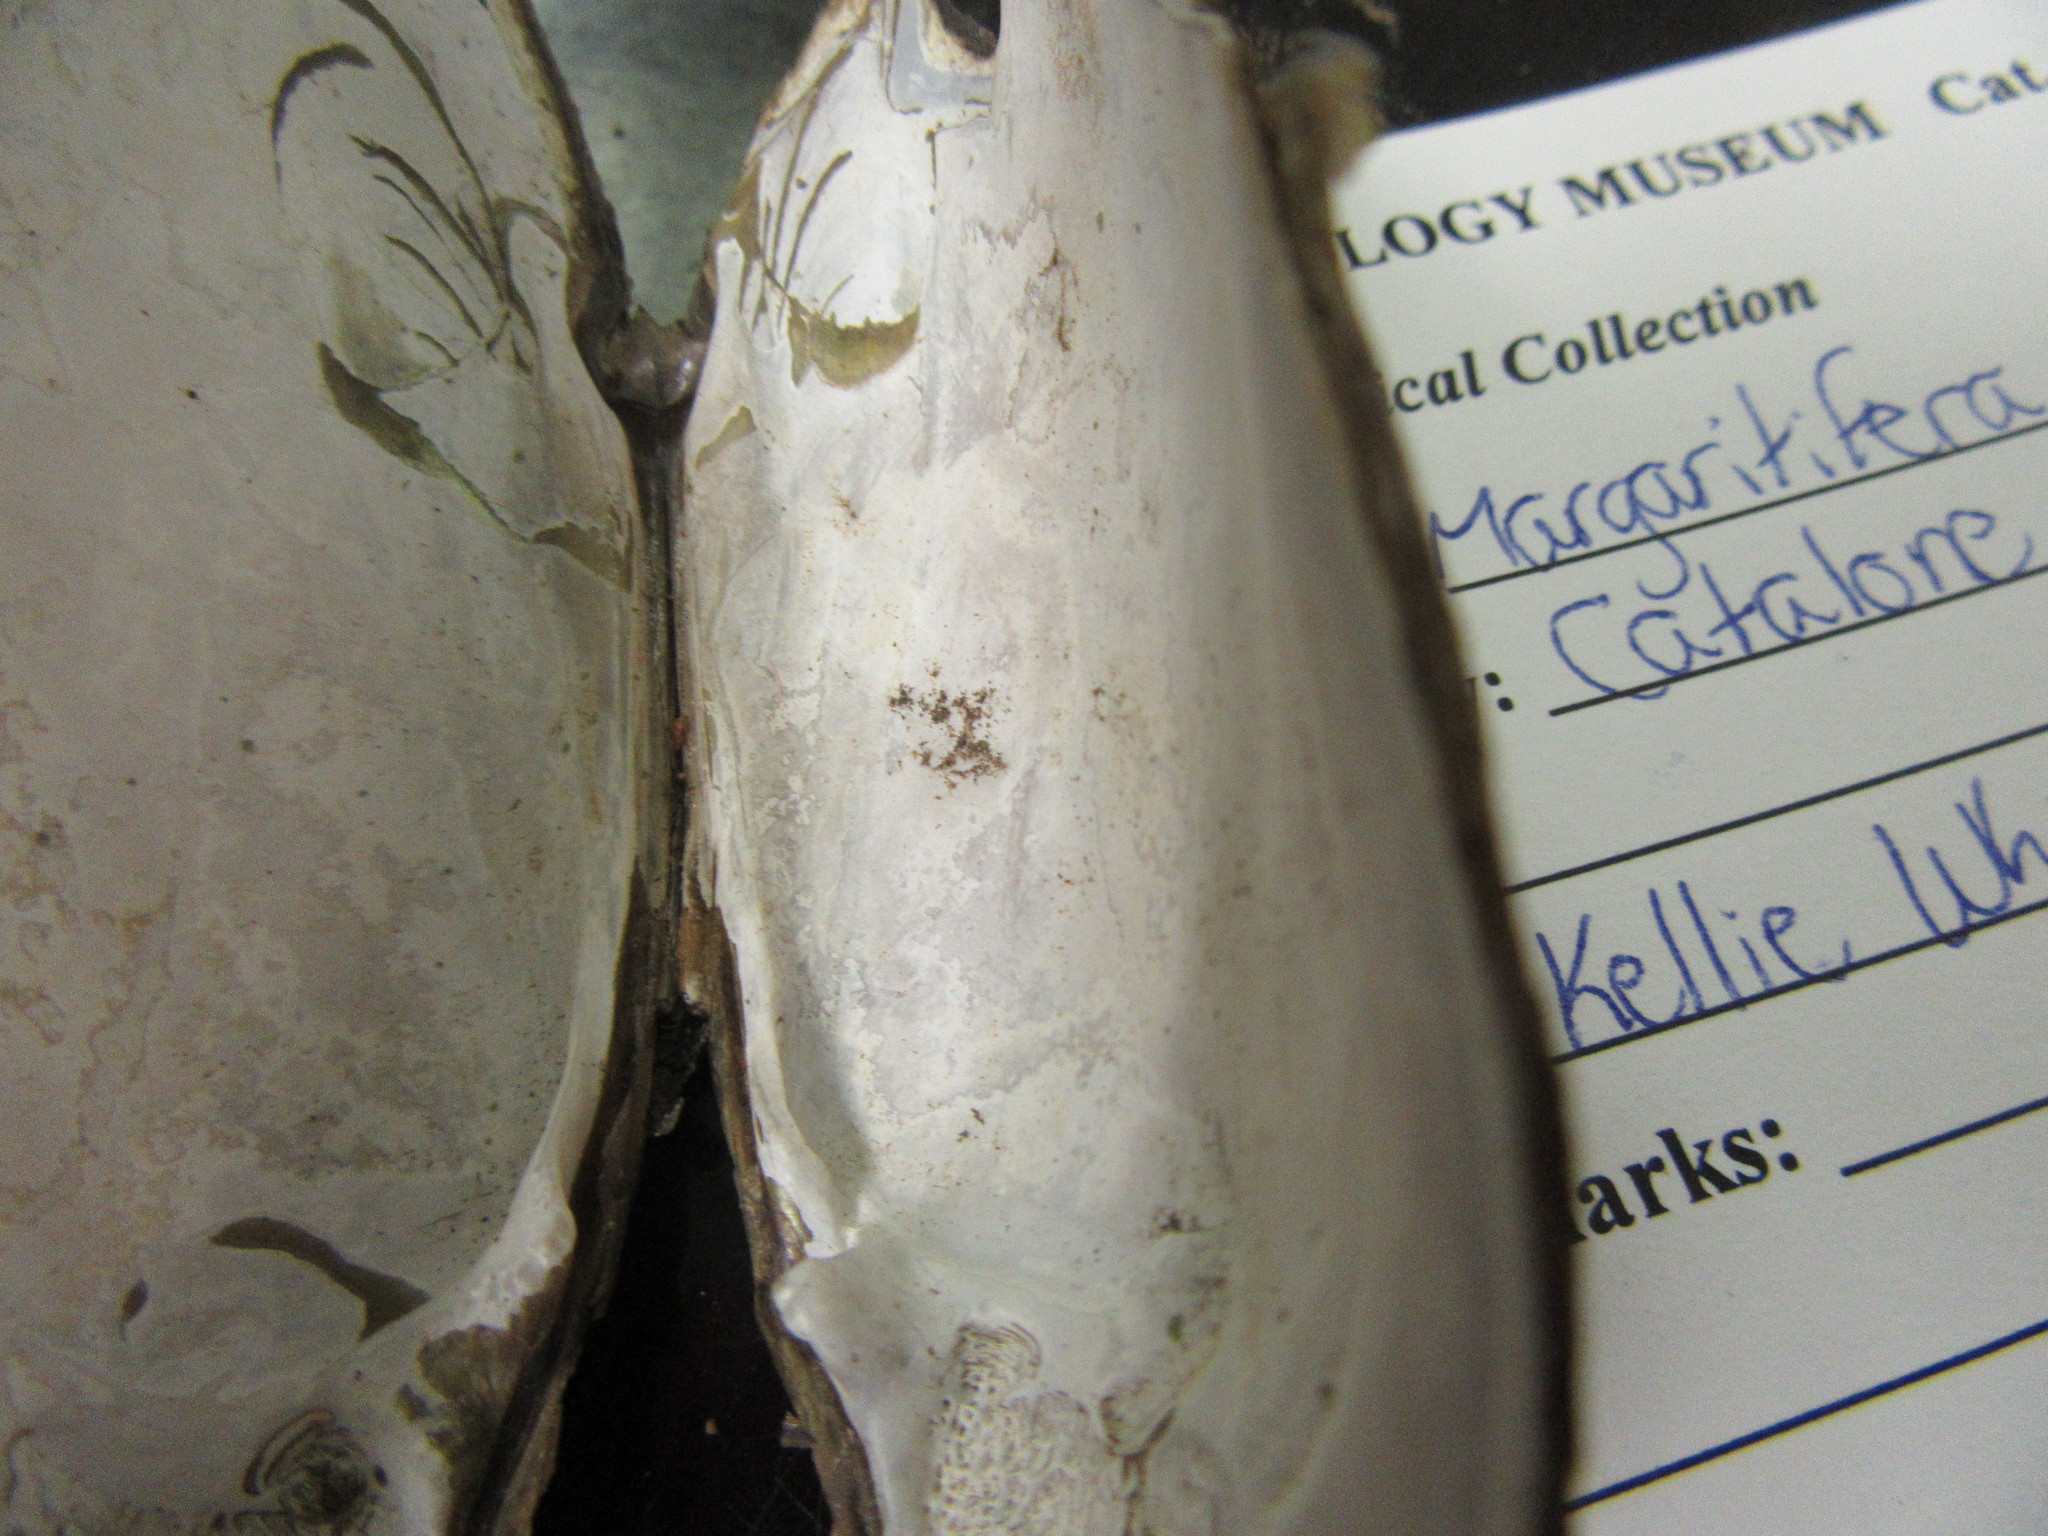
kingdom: Animalia
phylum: Mollusca
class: Bivalvia
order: Unionida
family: Margaritiferidae
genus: Margaritifera
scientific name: Margaritifera margaritifera
